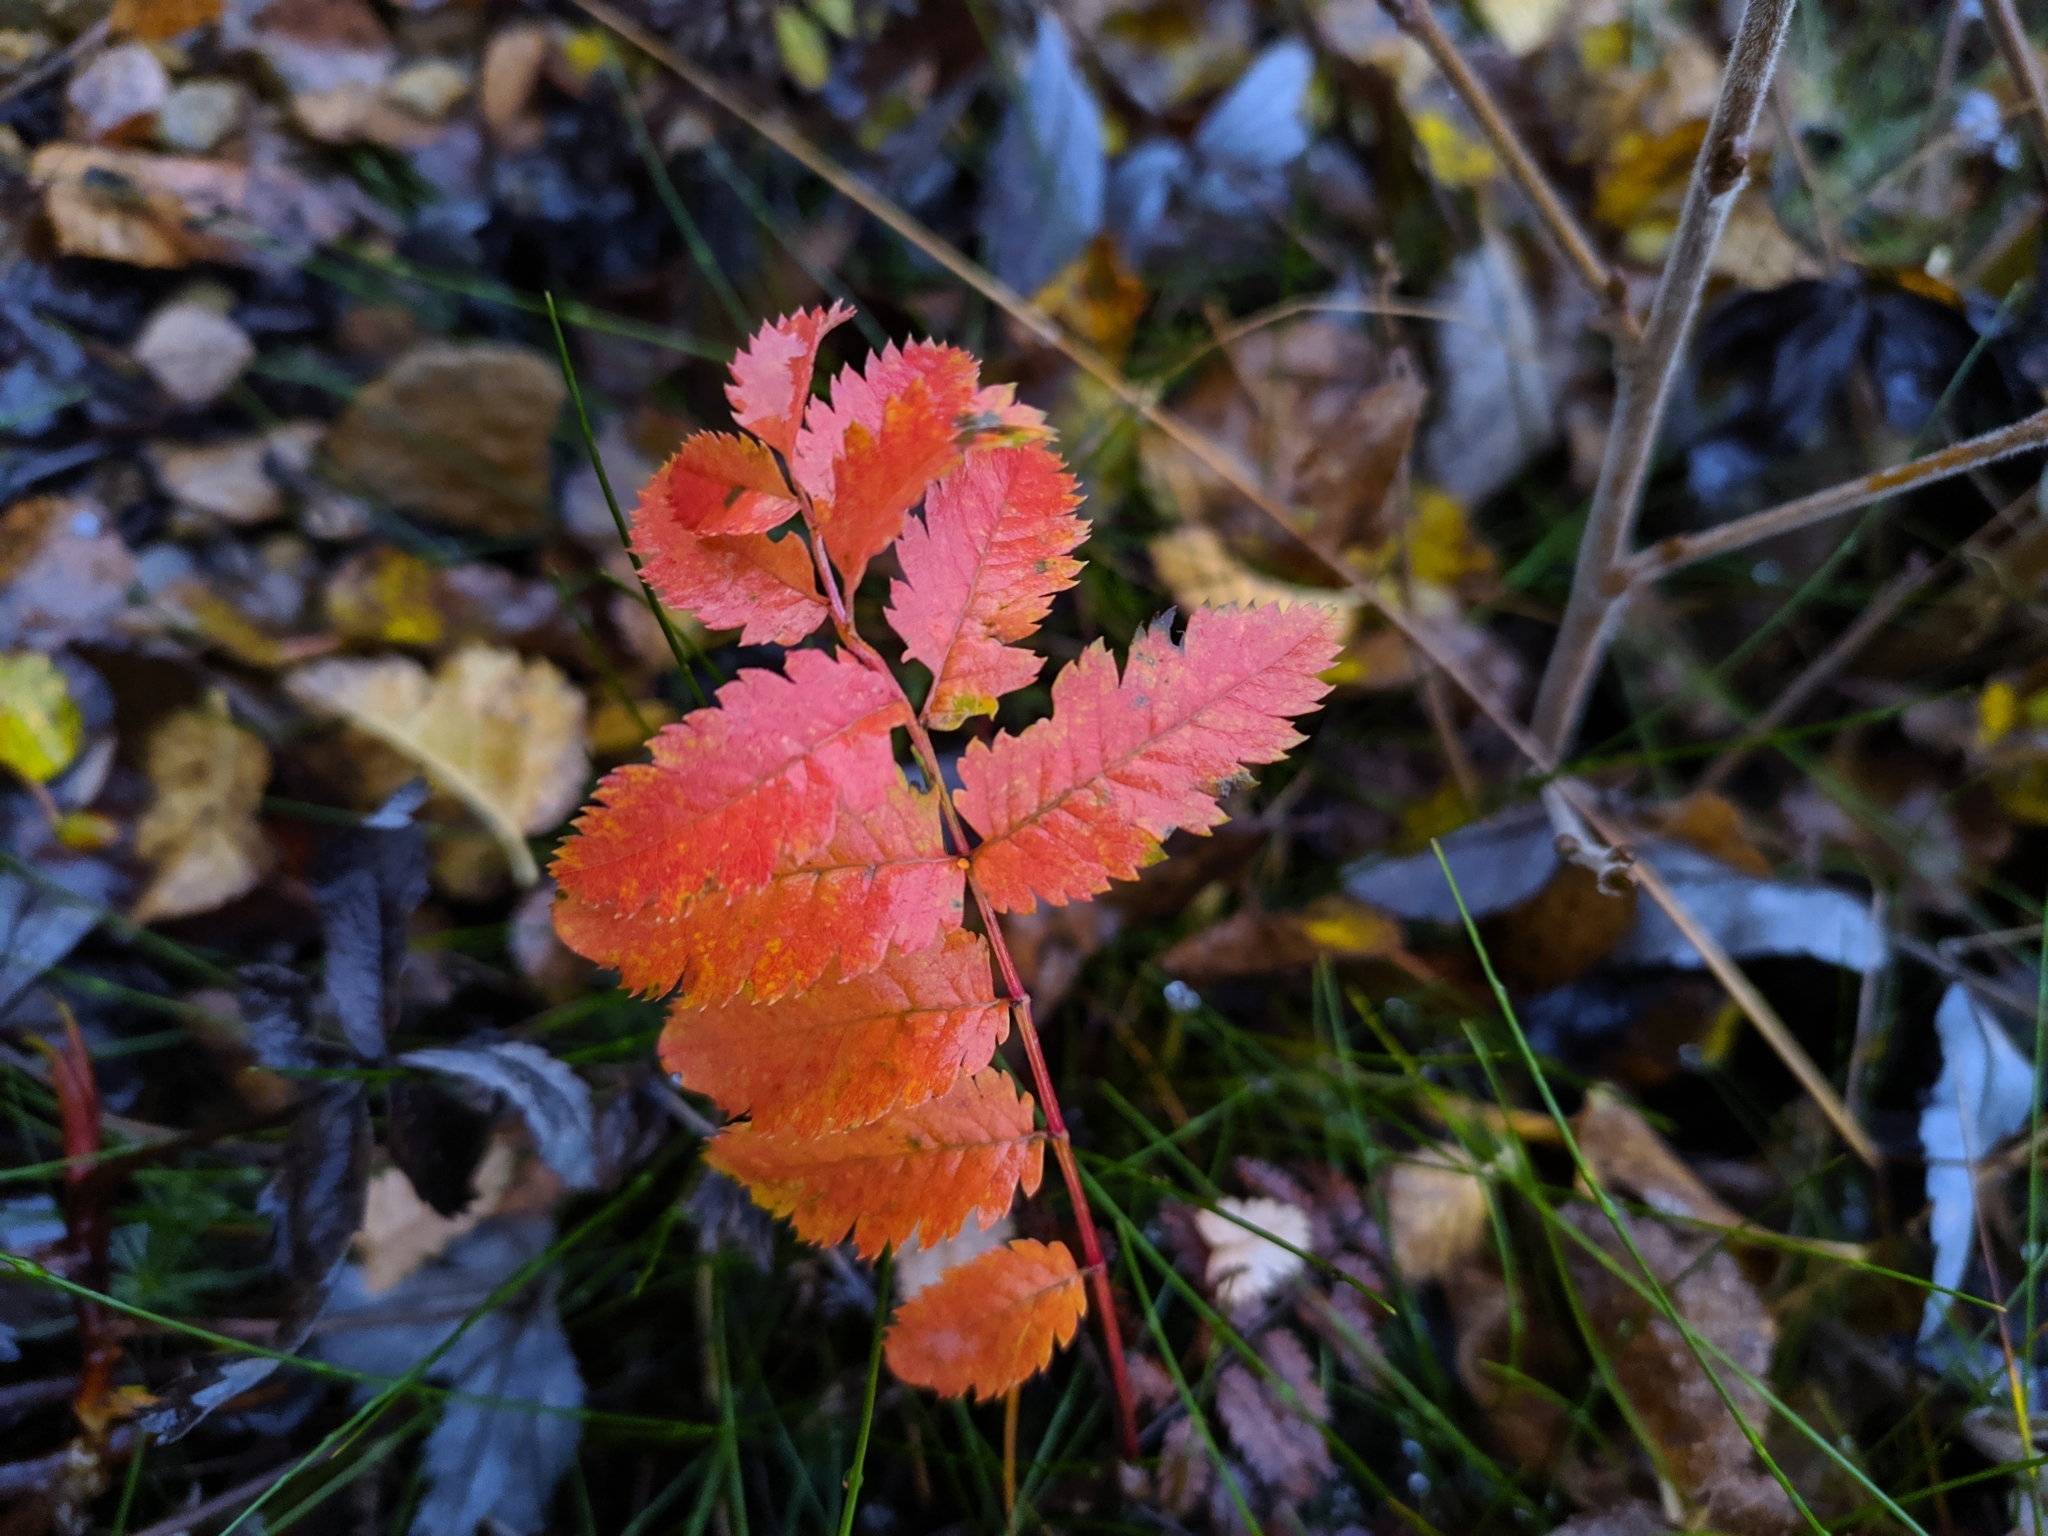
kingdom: Plantae
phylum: Tracheophyta
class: Magnoliopsida
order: Rosales
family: Rosaceae
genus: Sorbus
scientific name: Sorbus aucuparia
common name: Rowan
